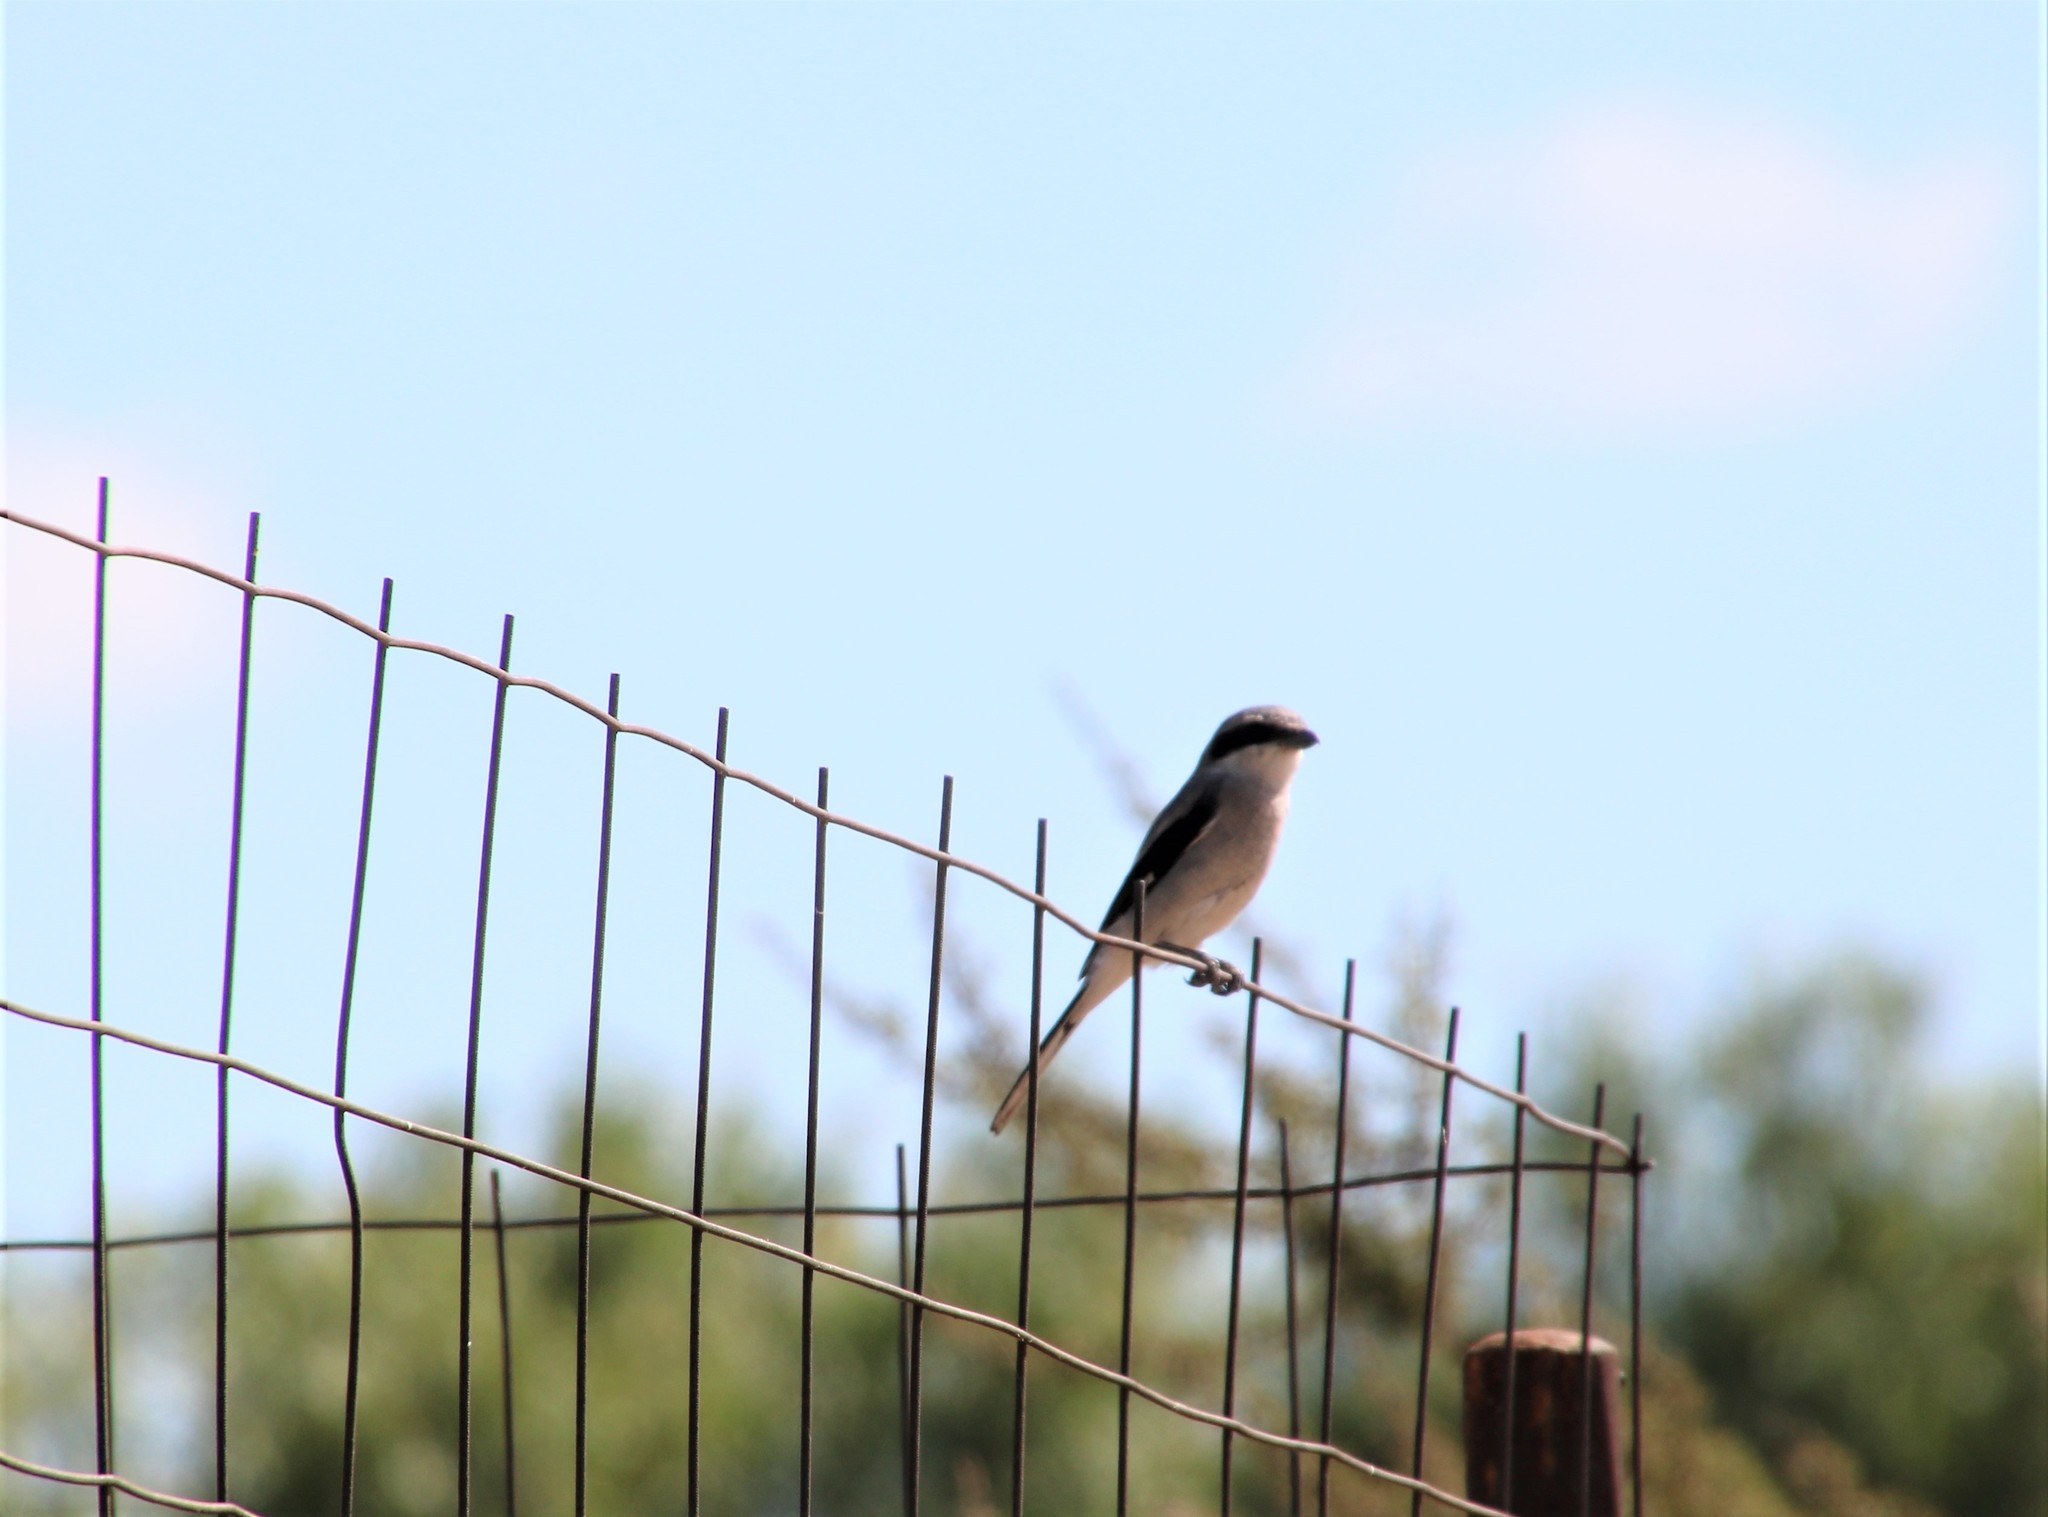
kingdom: Animalia
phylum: Chordata
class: Aves
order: Passeriformes
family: Laniidae
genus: Lanius
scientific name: Lanius ludovicianus
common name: Loggerhead shrike
